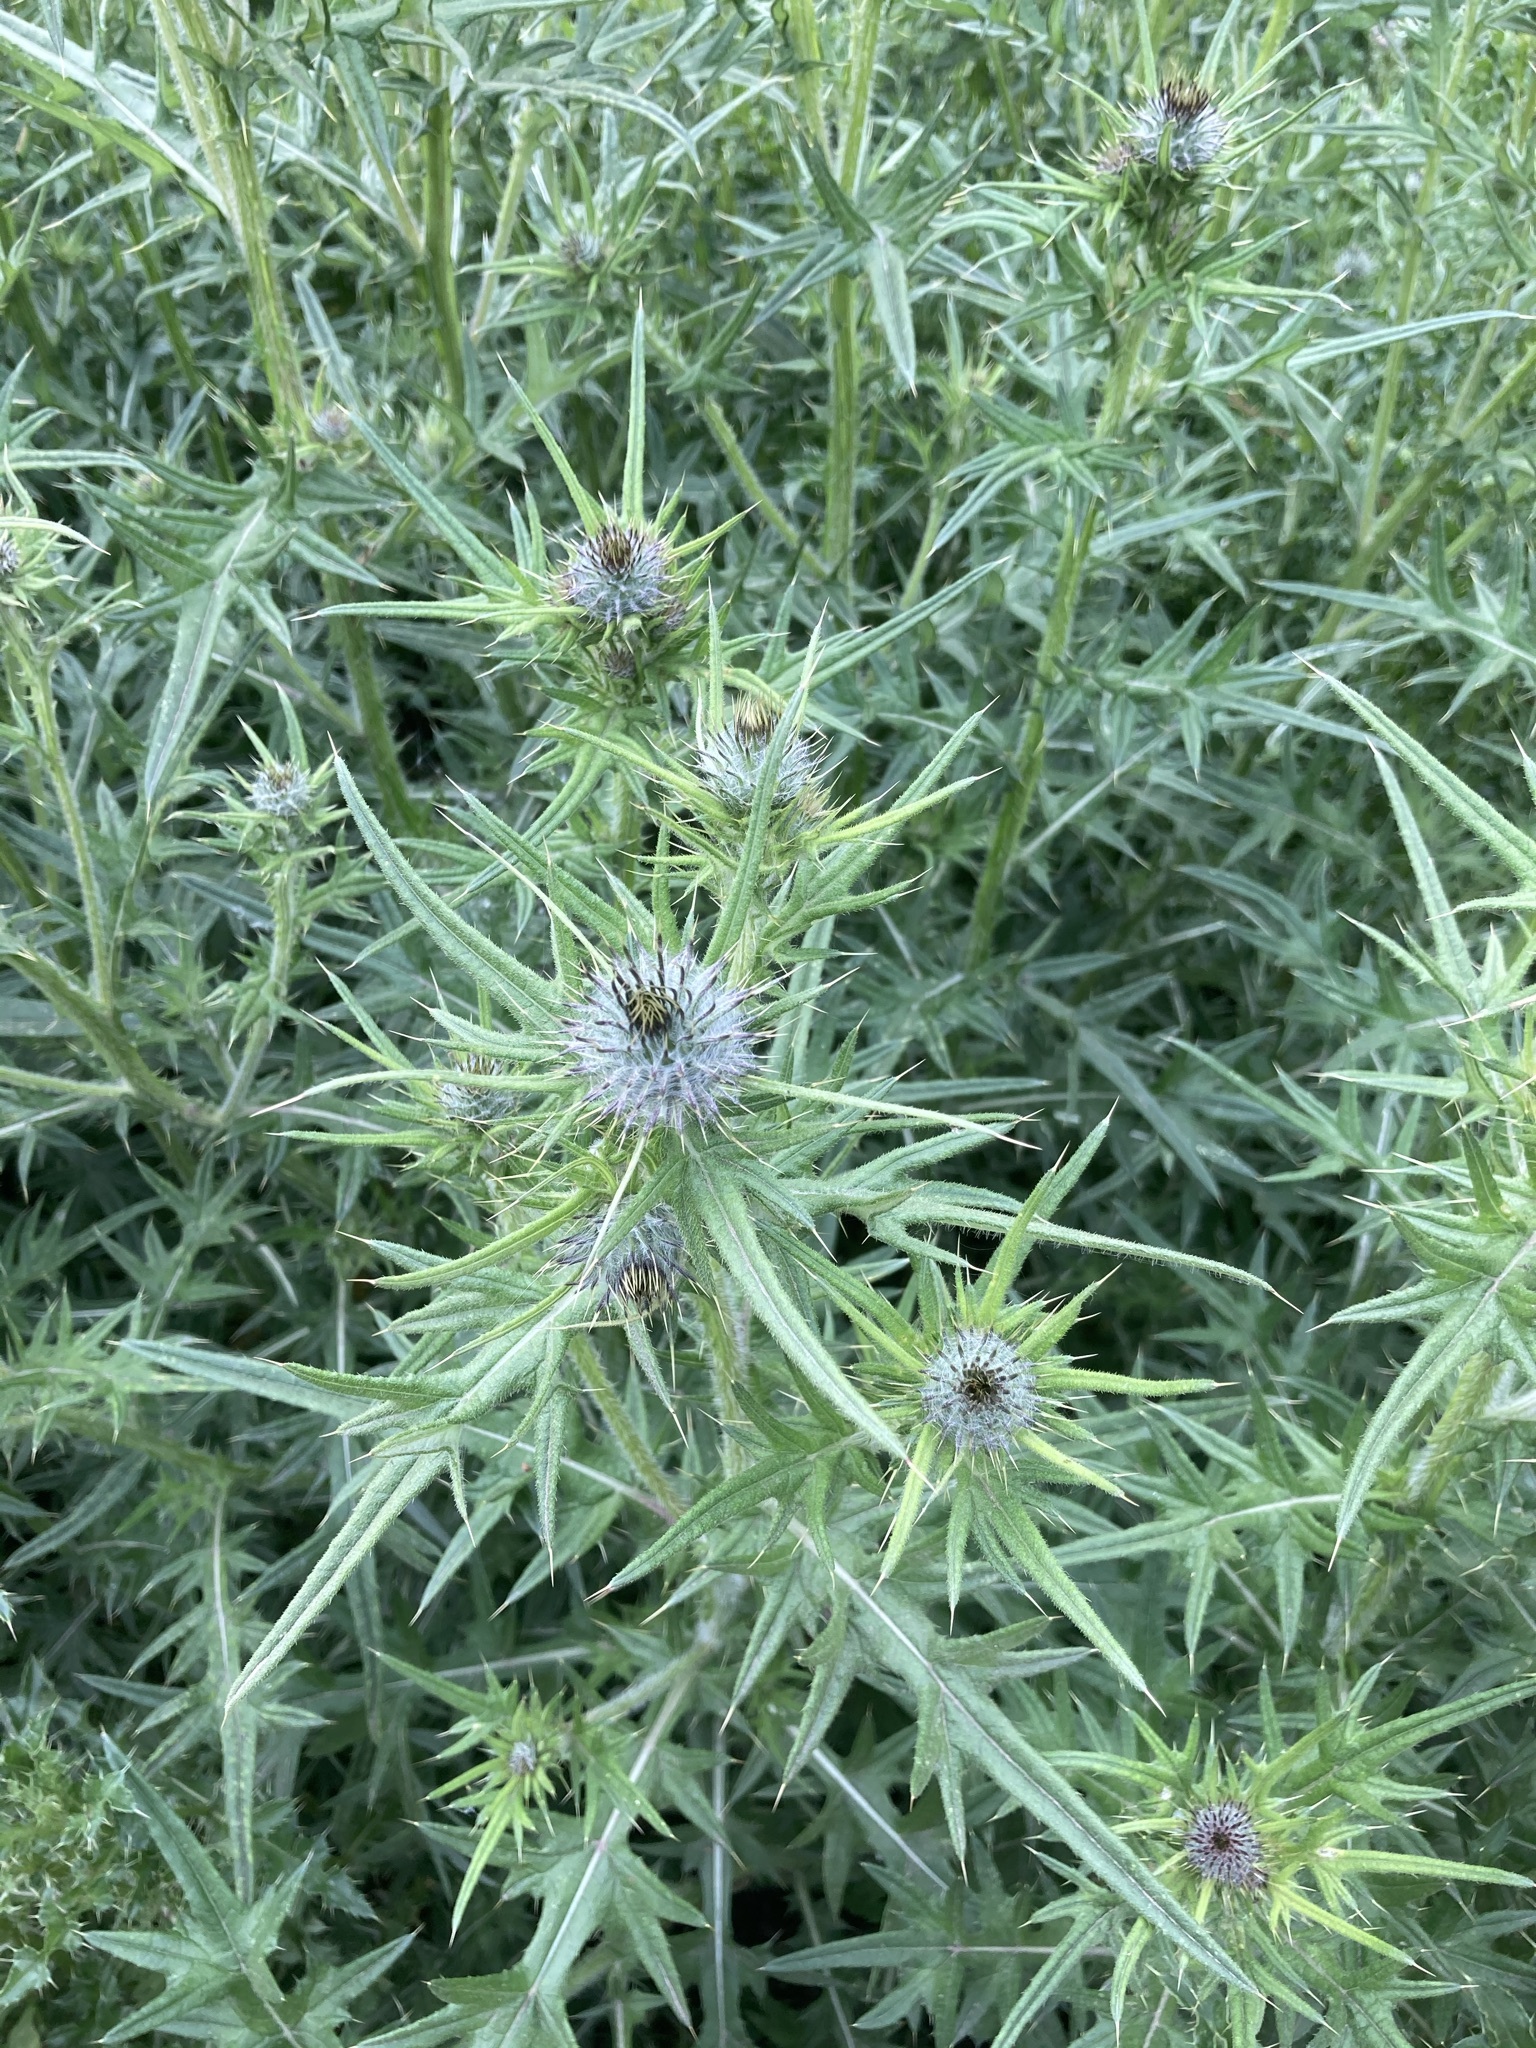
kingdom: Plantae
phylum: Tracheophyta
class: Magnoliopsida
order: Asterales
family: Asteraceae
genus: Cirsium
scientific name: Cirsium vulgare
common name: Bull thistle
